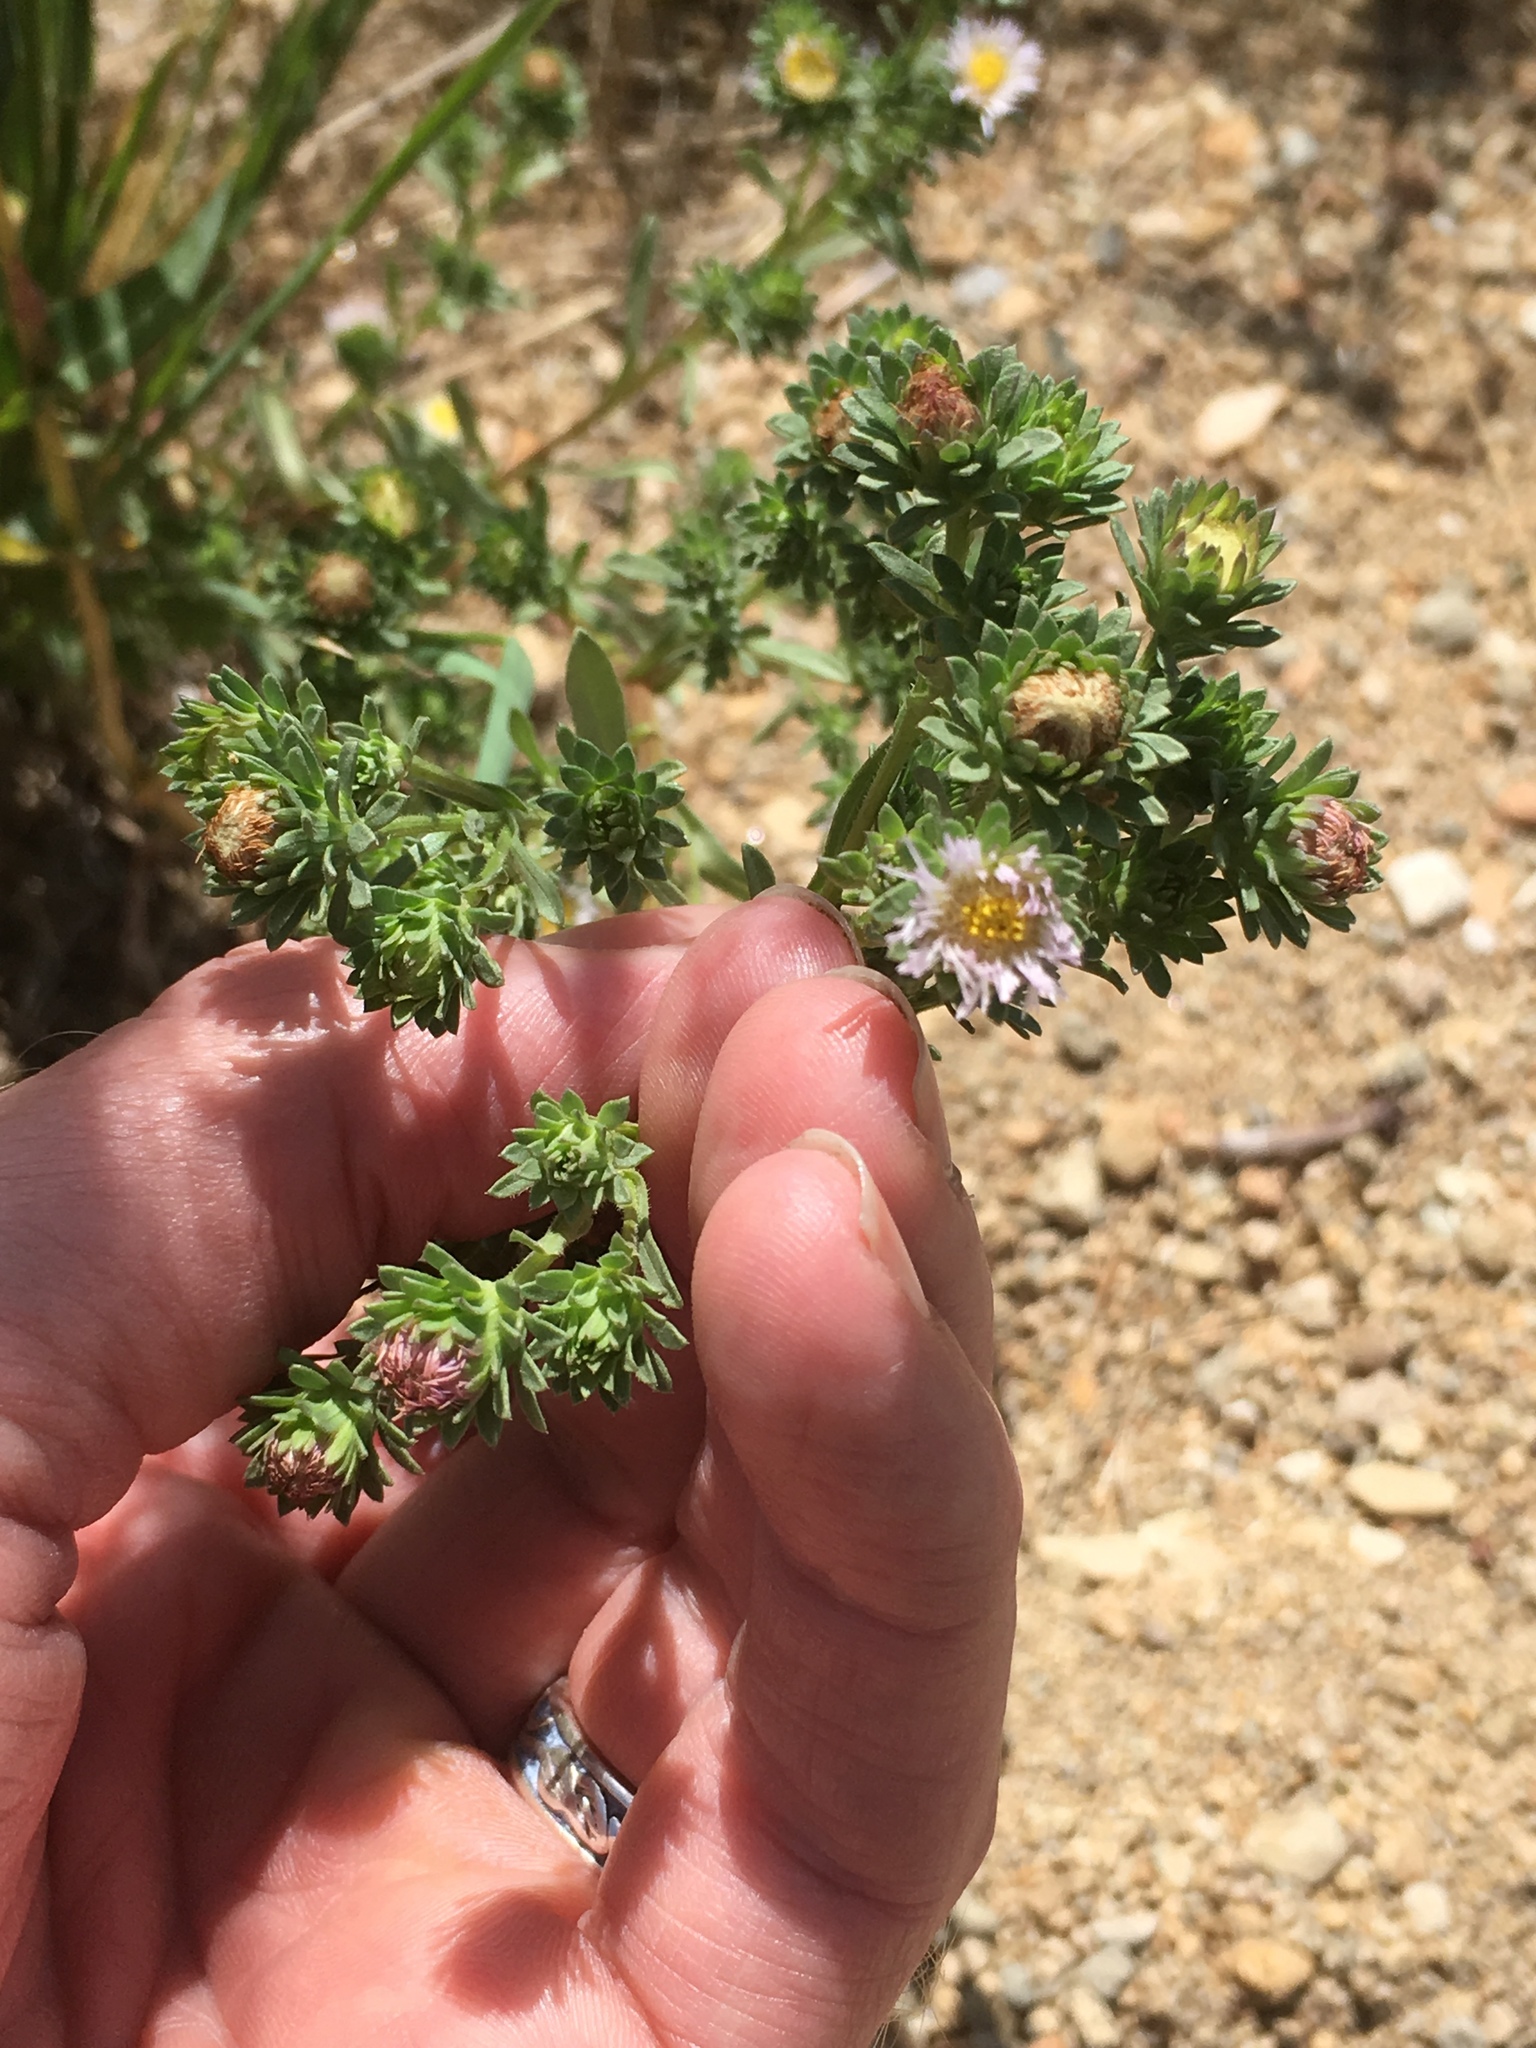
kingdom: Plantae
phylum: Tracheophyta
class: Magnoliopsida
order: Asterales
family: Asteraceae
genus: Symphyotrichum
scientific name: Symphyotrichum frondosum
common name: Leafy aster
